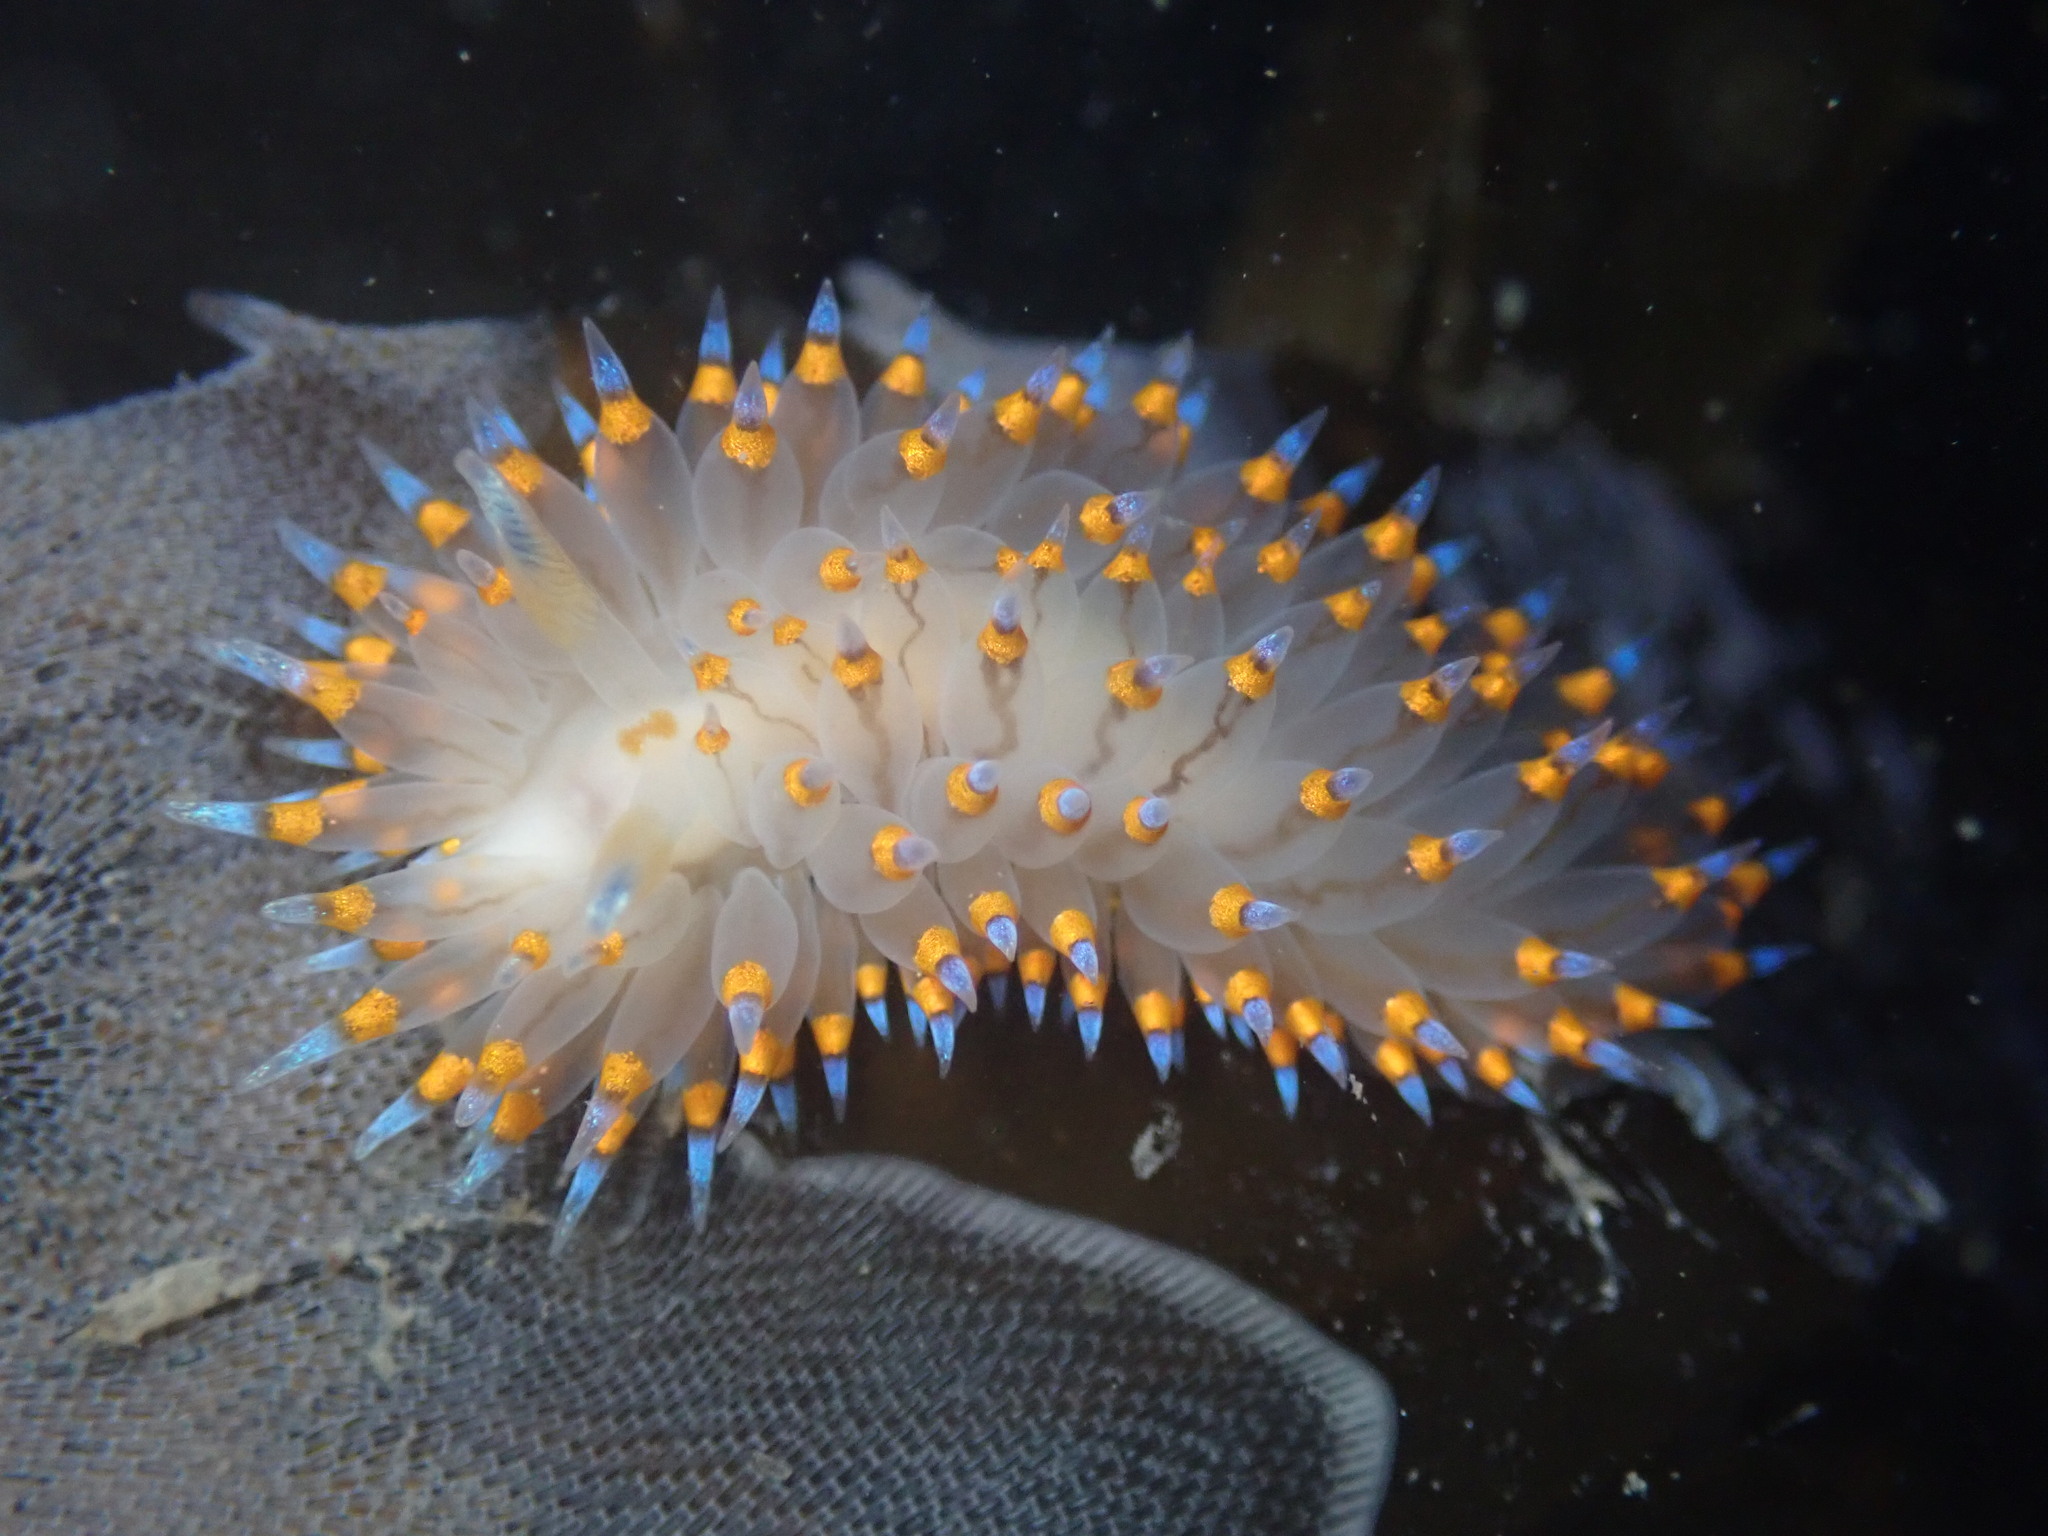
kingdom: Animalia
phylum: Mollusca
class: Gastropoda
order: Nudibranchia
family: Janolidae
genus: Antiopella
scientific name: Antiopella barbarensis
